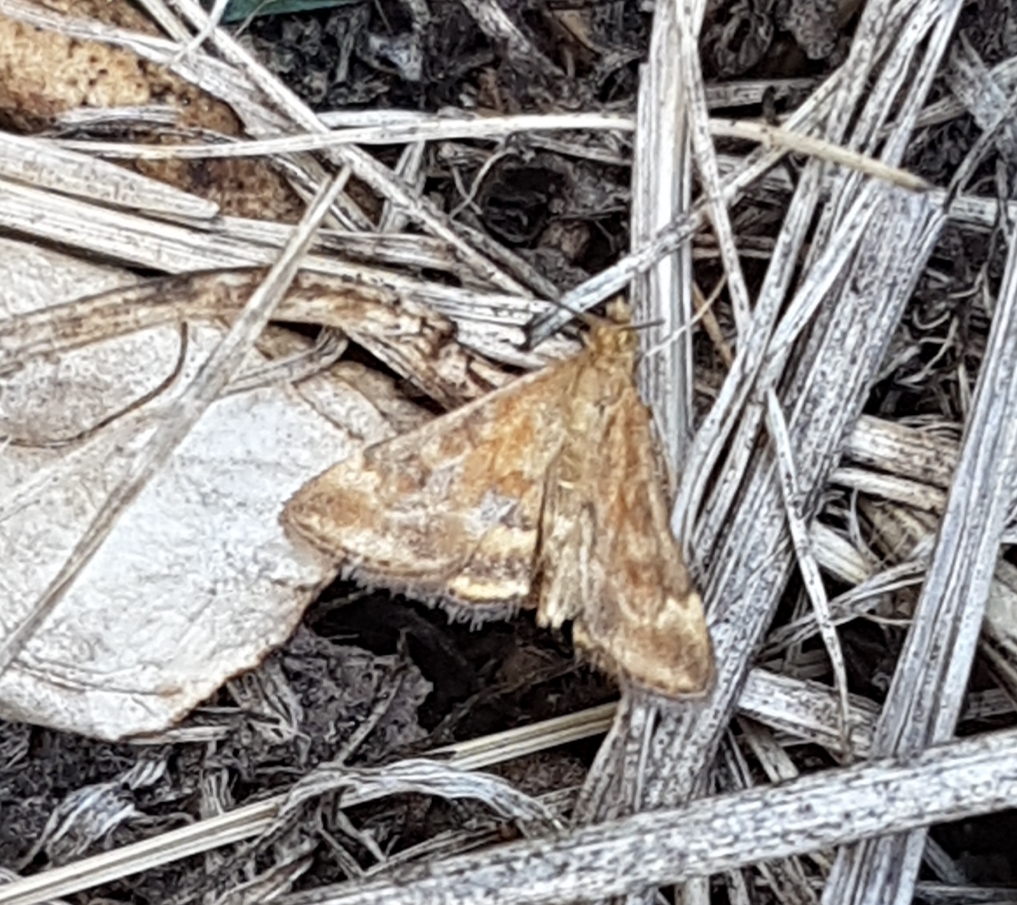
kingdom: Animalia
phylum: Arthropoda
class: Insecta
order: Lepidoptera
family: Crambidae
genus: Pyrausta
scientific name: Pyrausta despicata
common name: Straw-barred pearl
